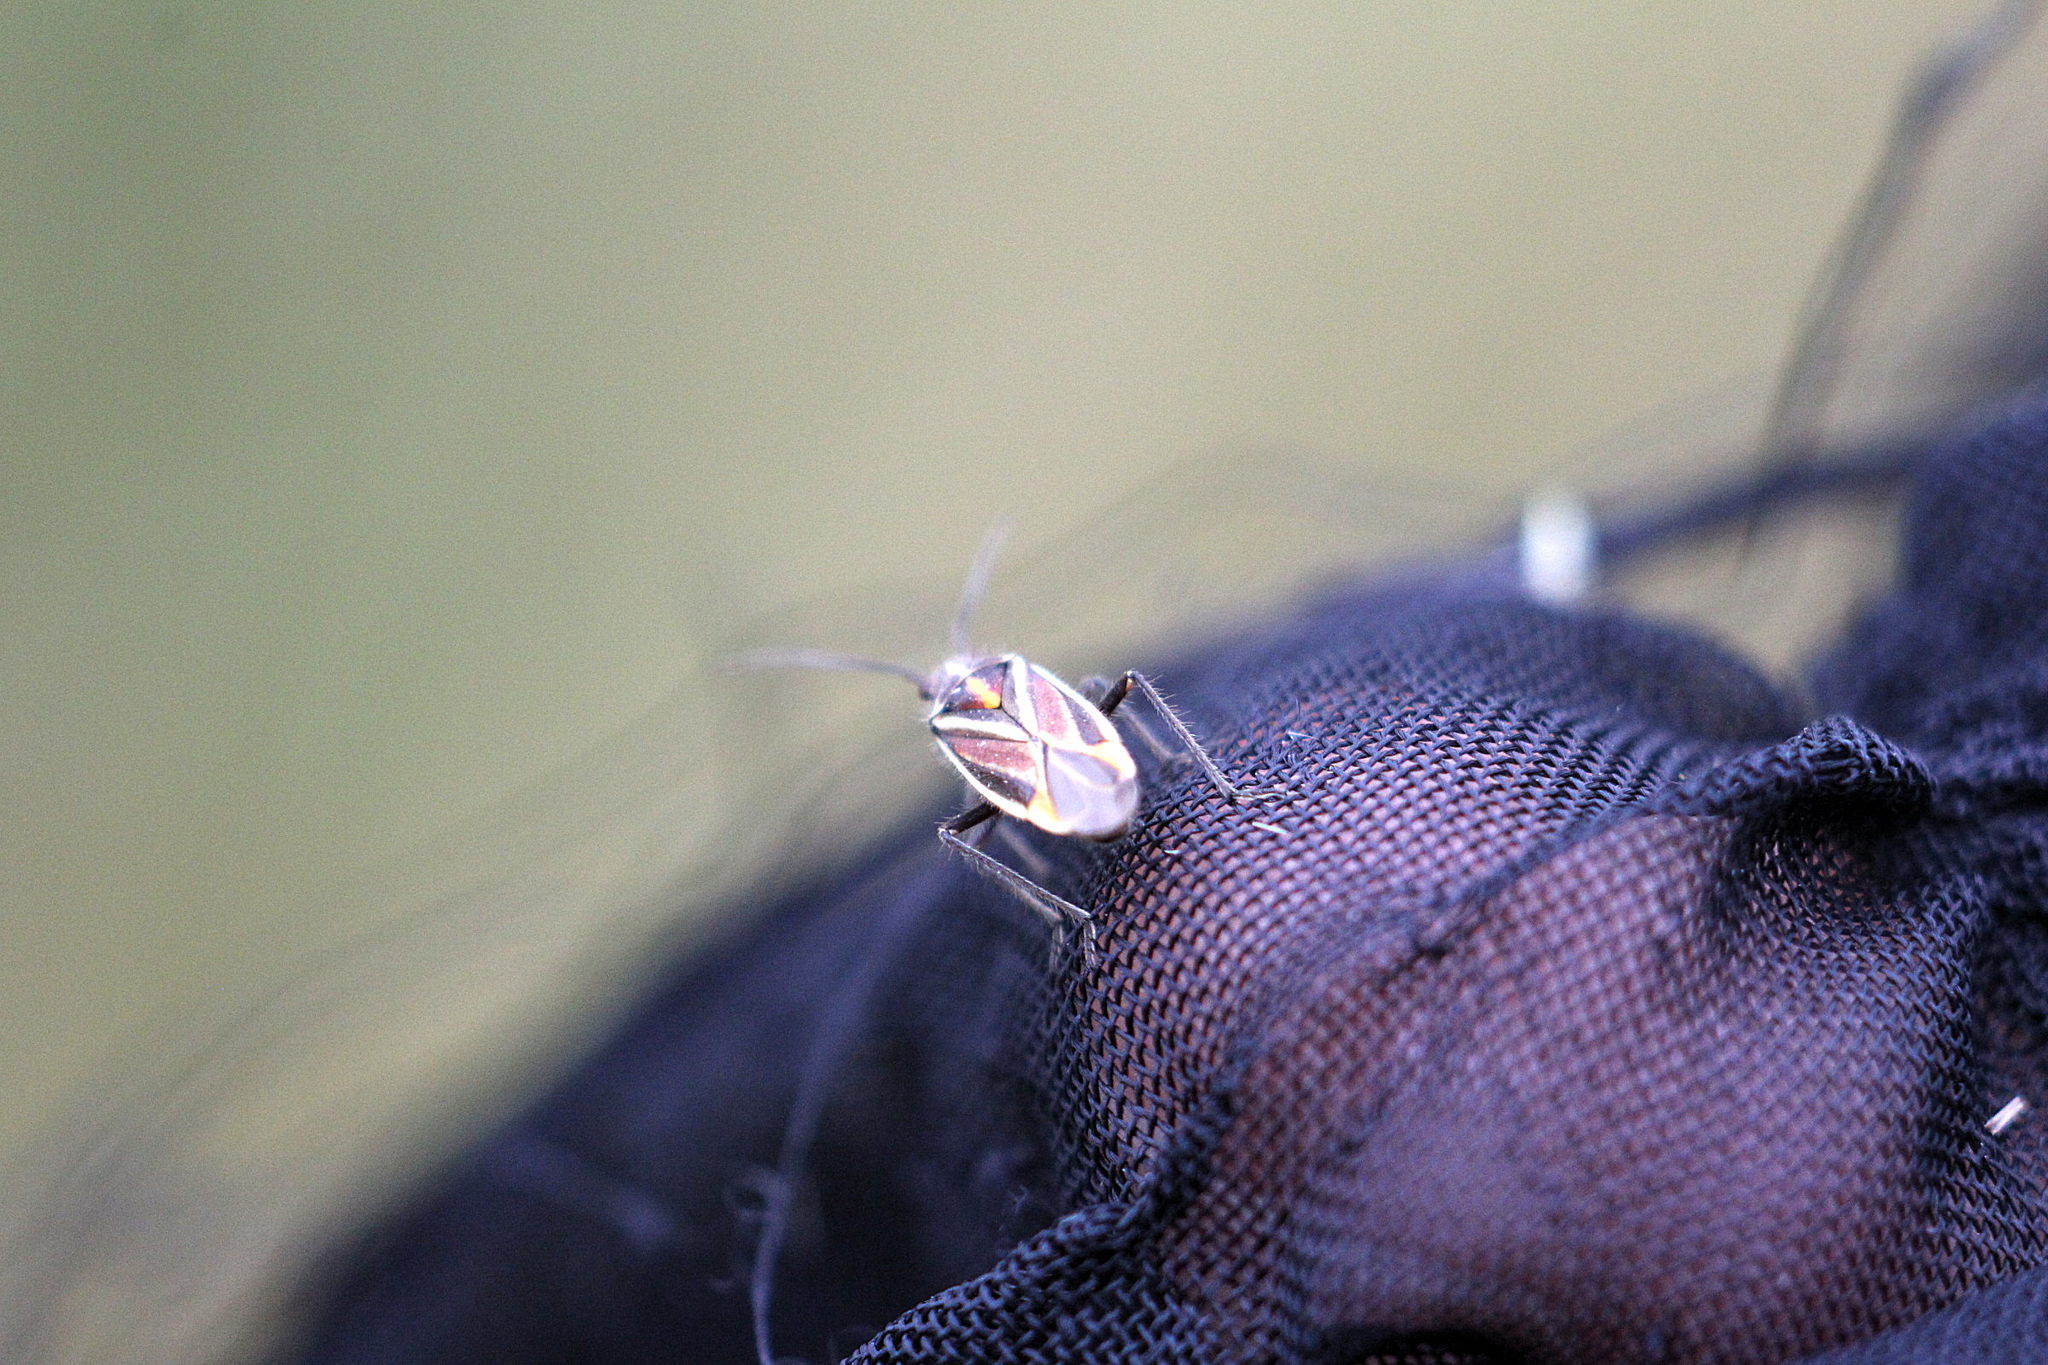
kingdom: Animalia
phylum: Arthropoda
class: Insecta
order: Hemiptera
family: Miridae
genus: Horistus
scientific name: Horistus orientalis
